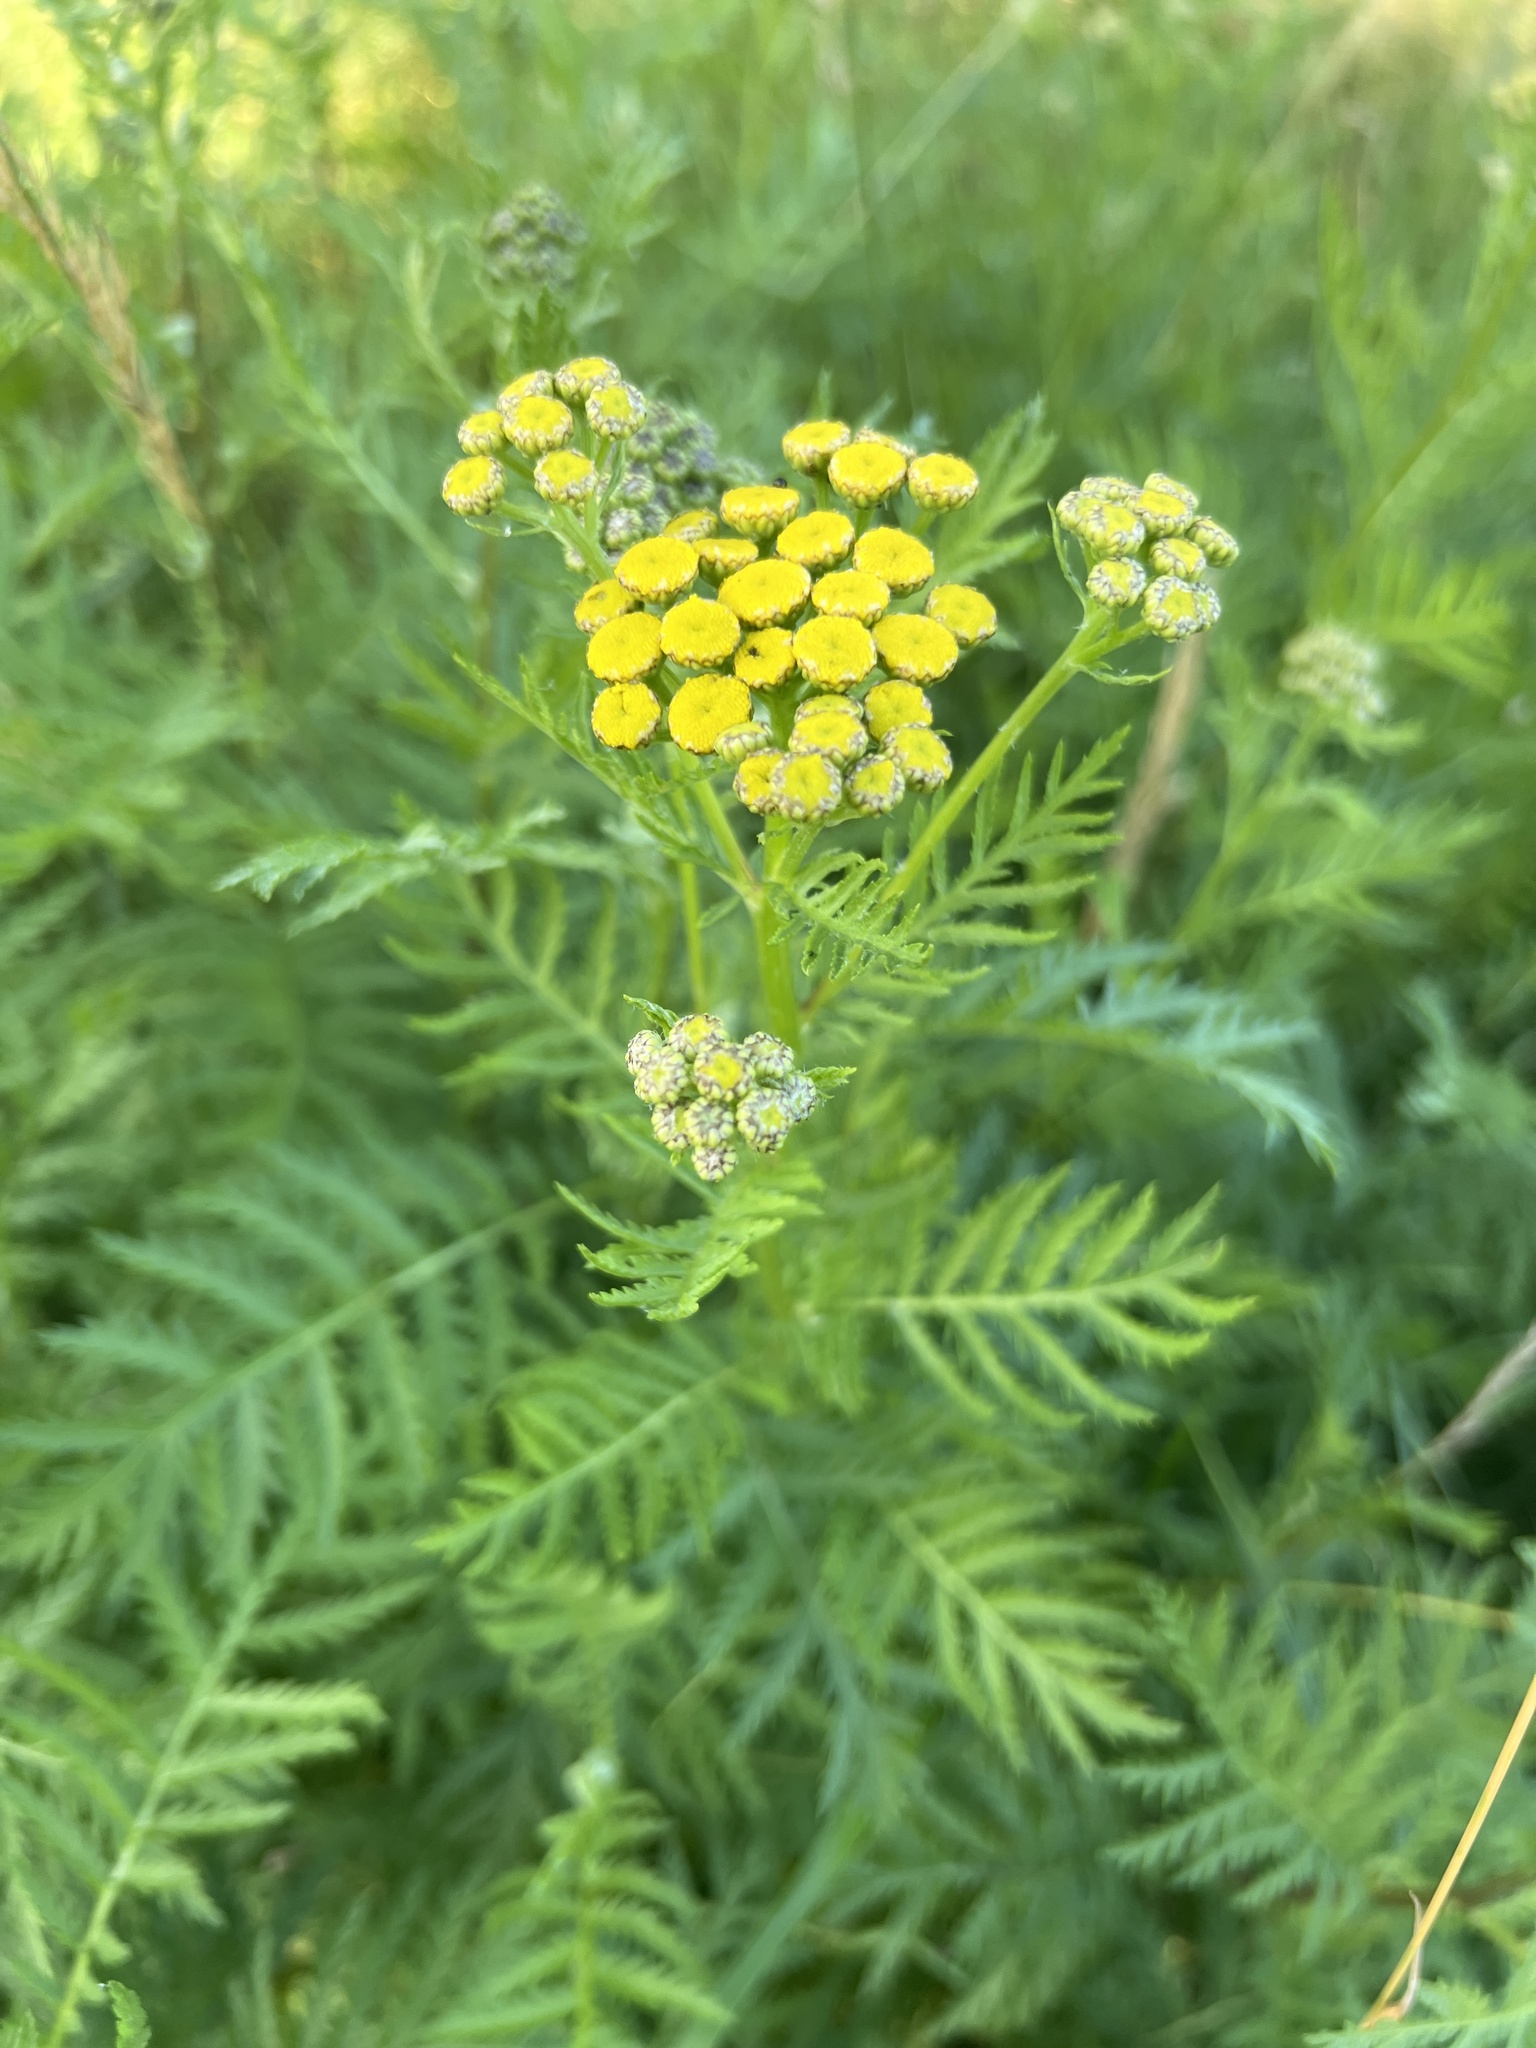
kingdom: Plantae
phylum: Tracheophyta
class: Magnoliopsida
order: Asterales
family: Asteraceae
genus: Tanacetum
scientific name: Tanacetum vulgare
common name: Common tansy
